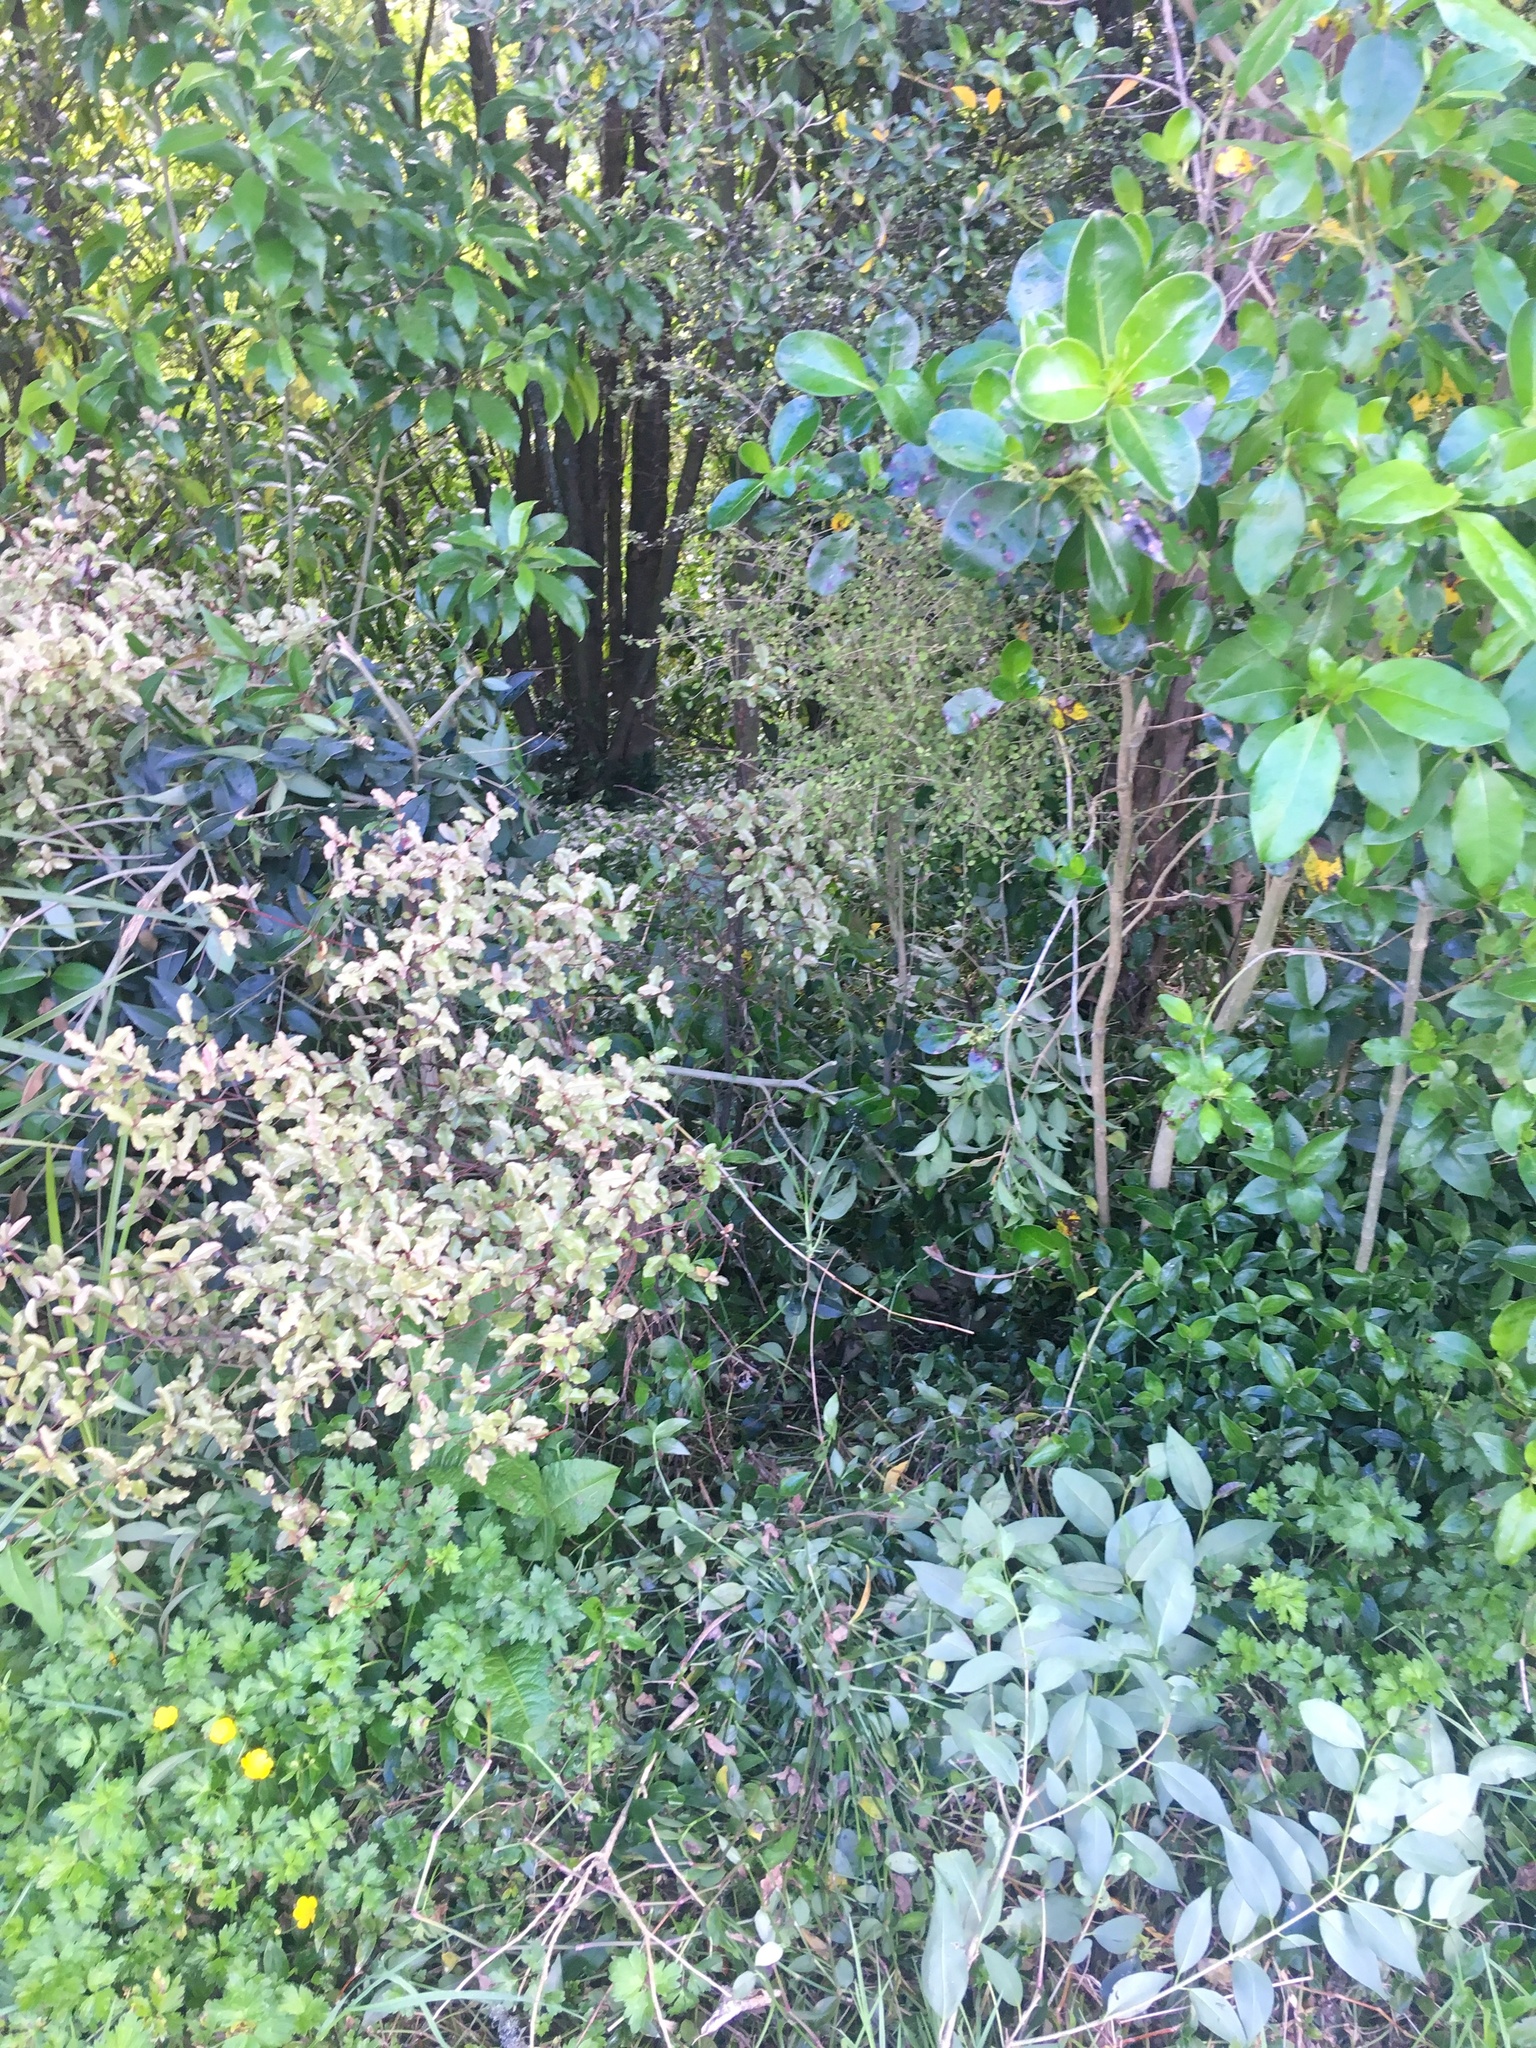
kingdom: Plantae
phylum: Tracheophyta
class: Magnoliopsida
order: Lamiales
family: Oleaceae
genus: Ligustrum
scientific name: Ligustrum lucidum
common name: Glossy privet
